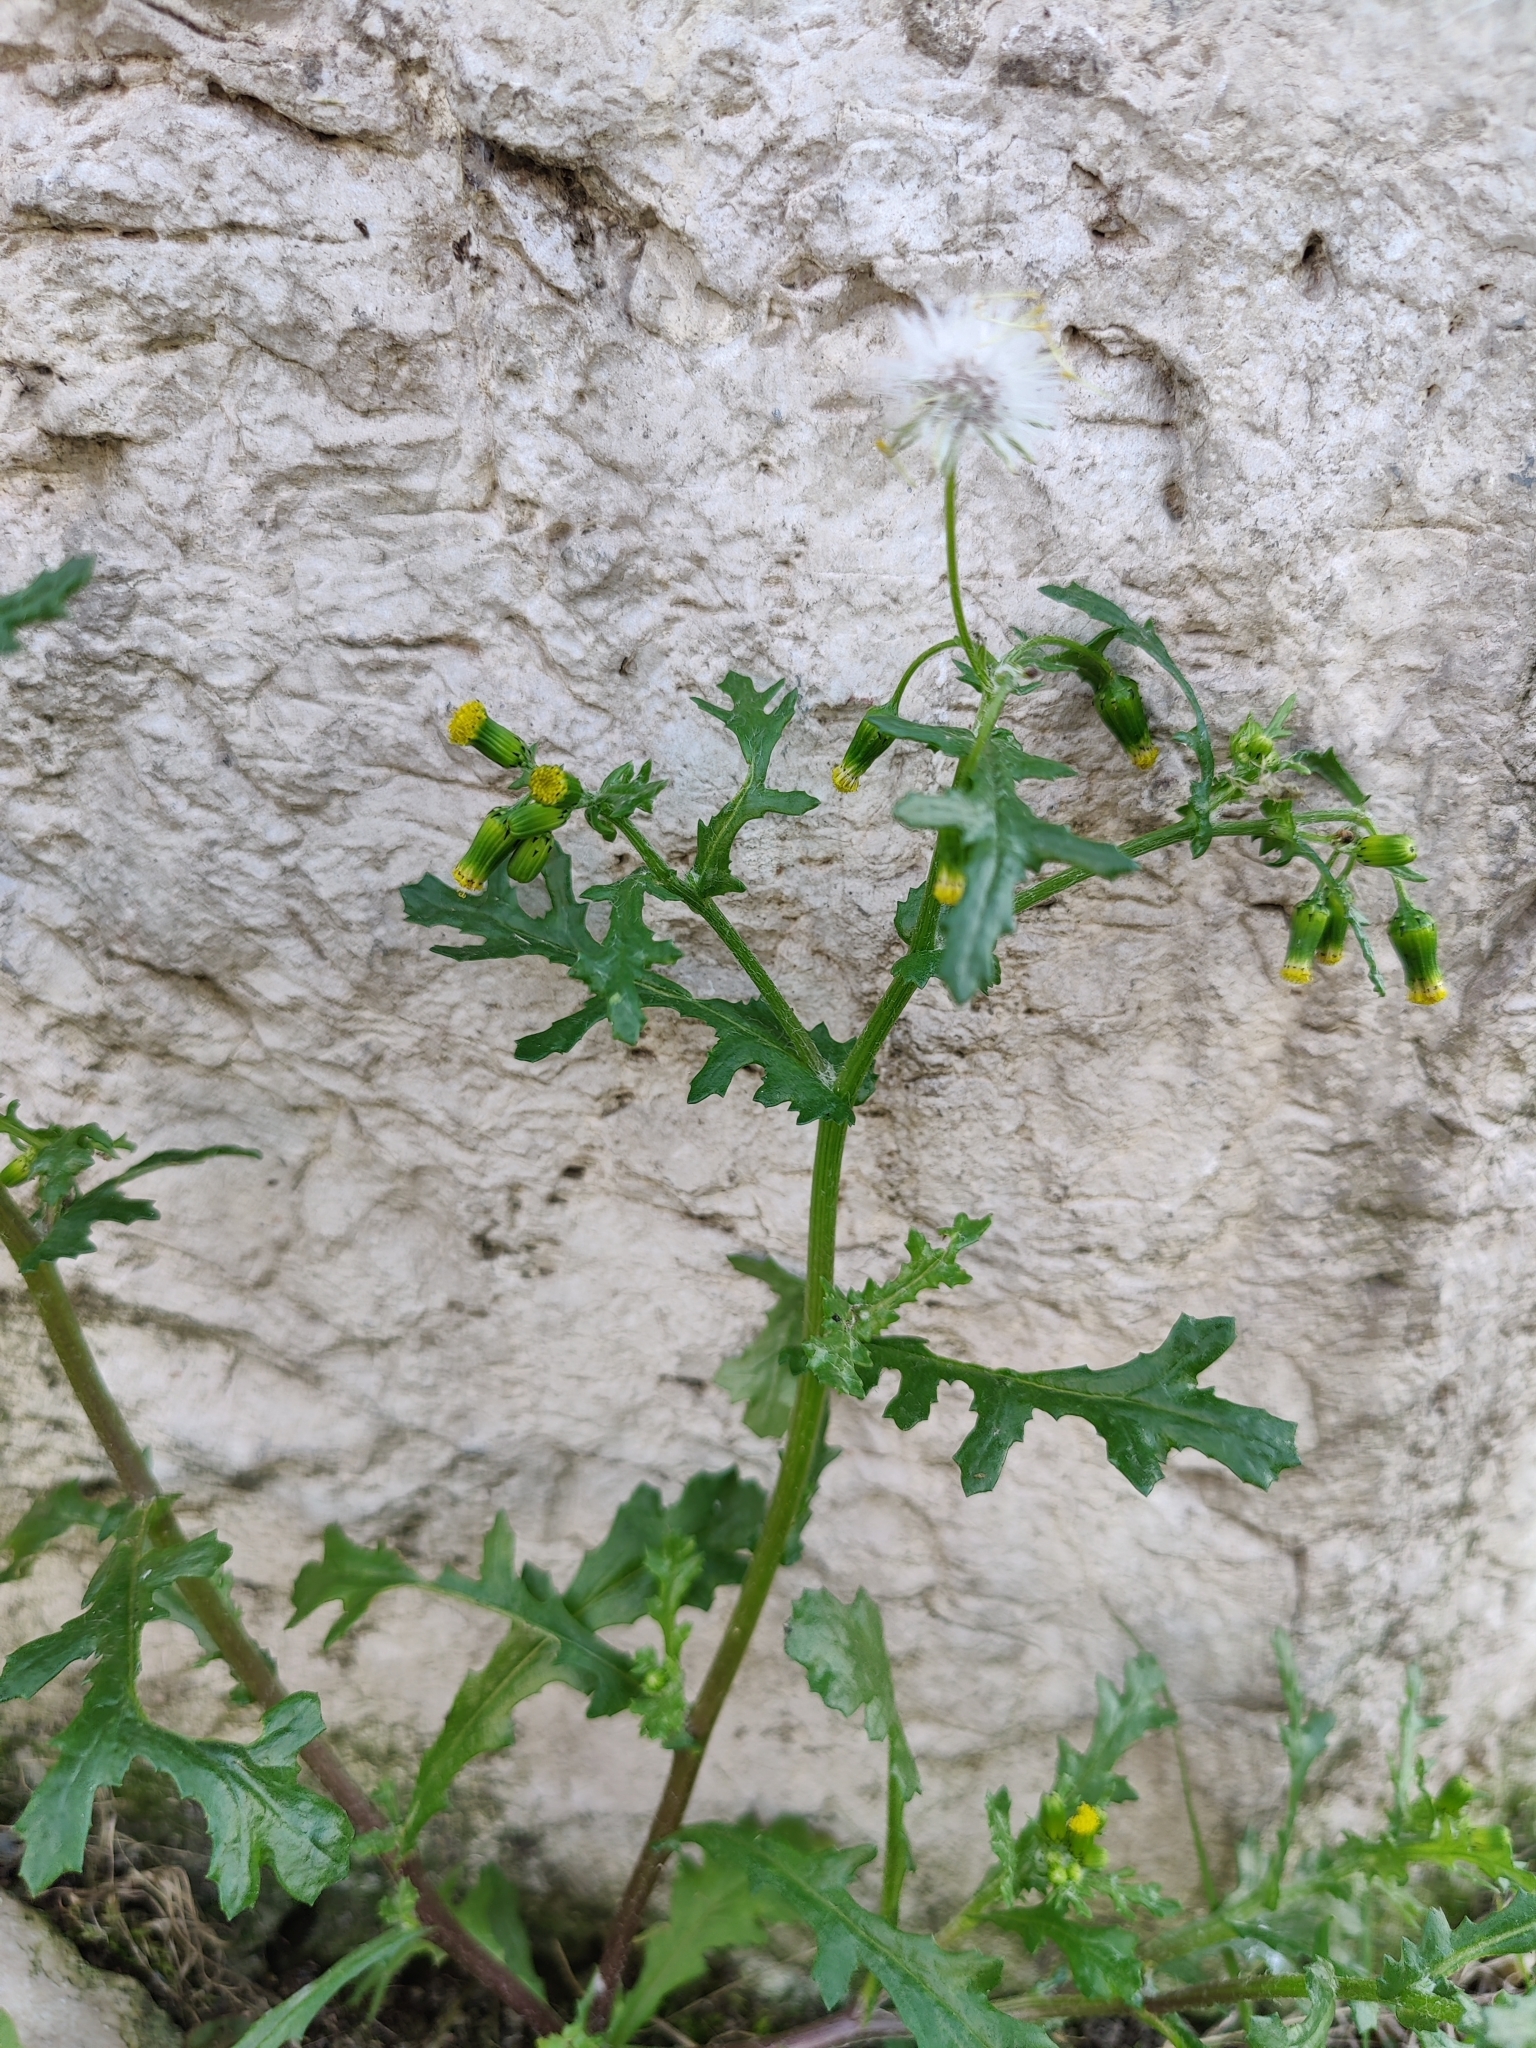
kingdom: Plantae
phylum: Tracheophyta
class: Magnoliopsida
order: Asterales
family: Asteraceae
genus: Senecio
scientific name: Senecio vulgaris
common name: Old-man-in-the-spring
